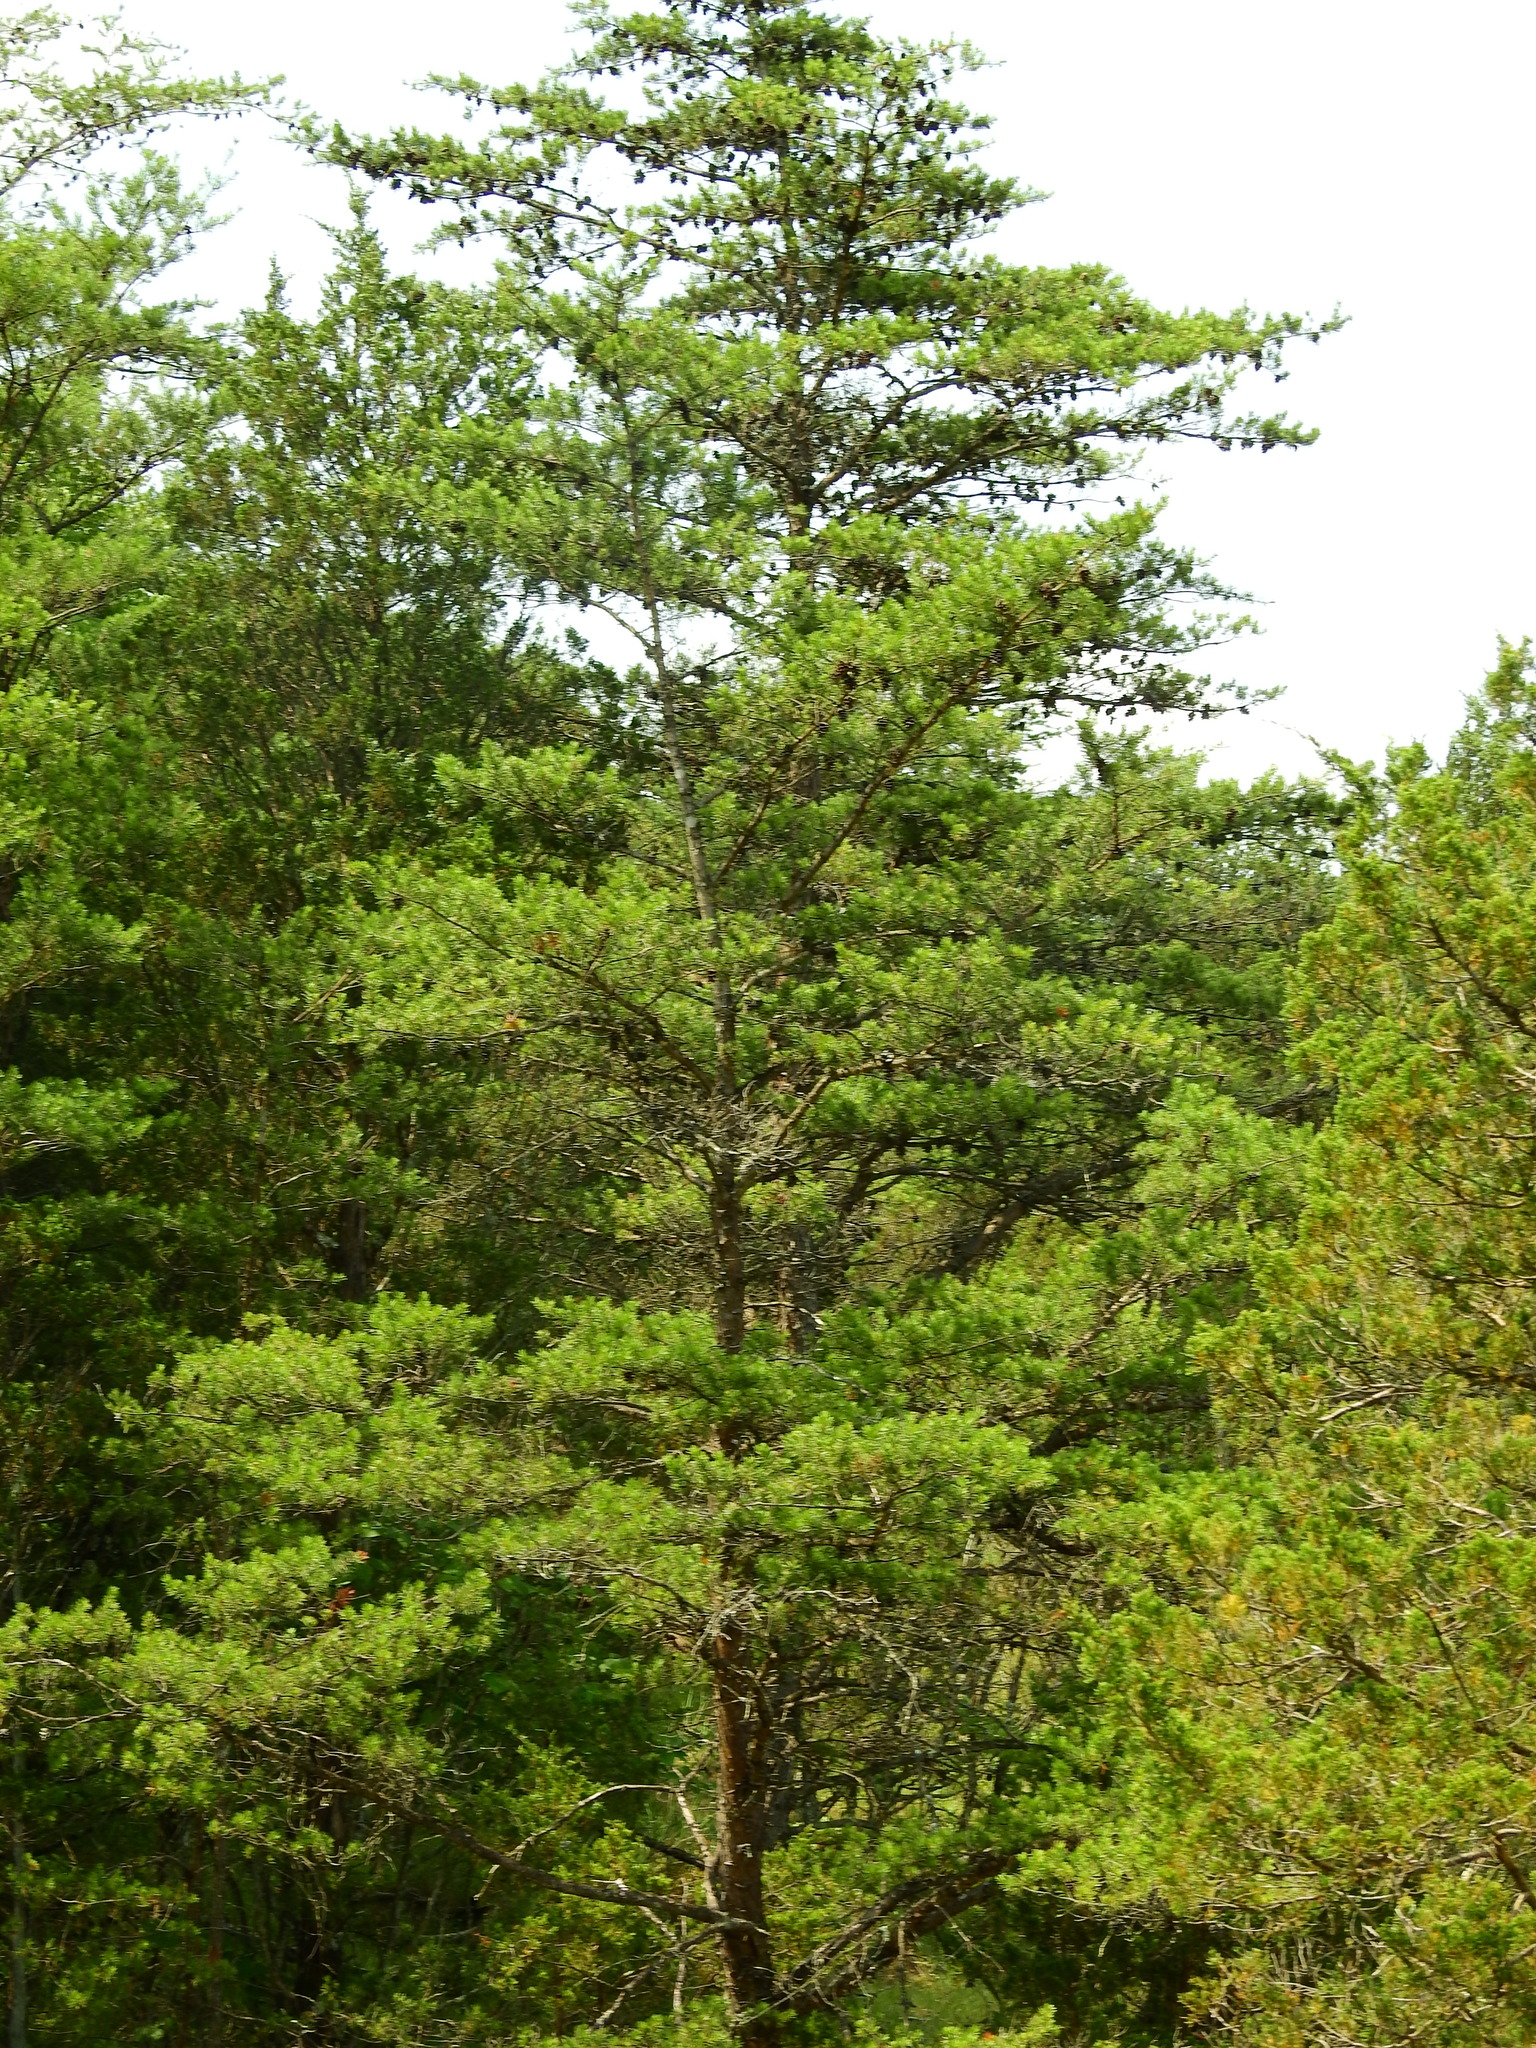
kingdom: Plantae
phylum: Tracheophyta
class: Pinopsida
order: Pinales
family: Pinaceae
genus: Pinus
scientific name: Pinus virginiana
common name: Scrub pine
